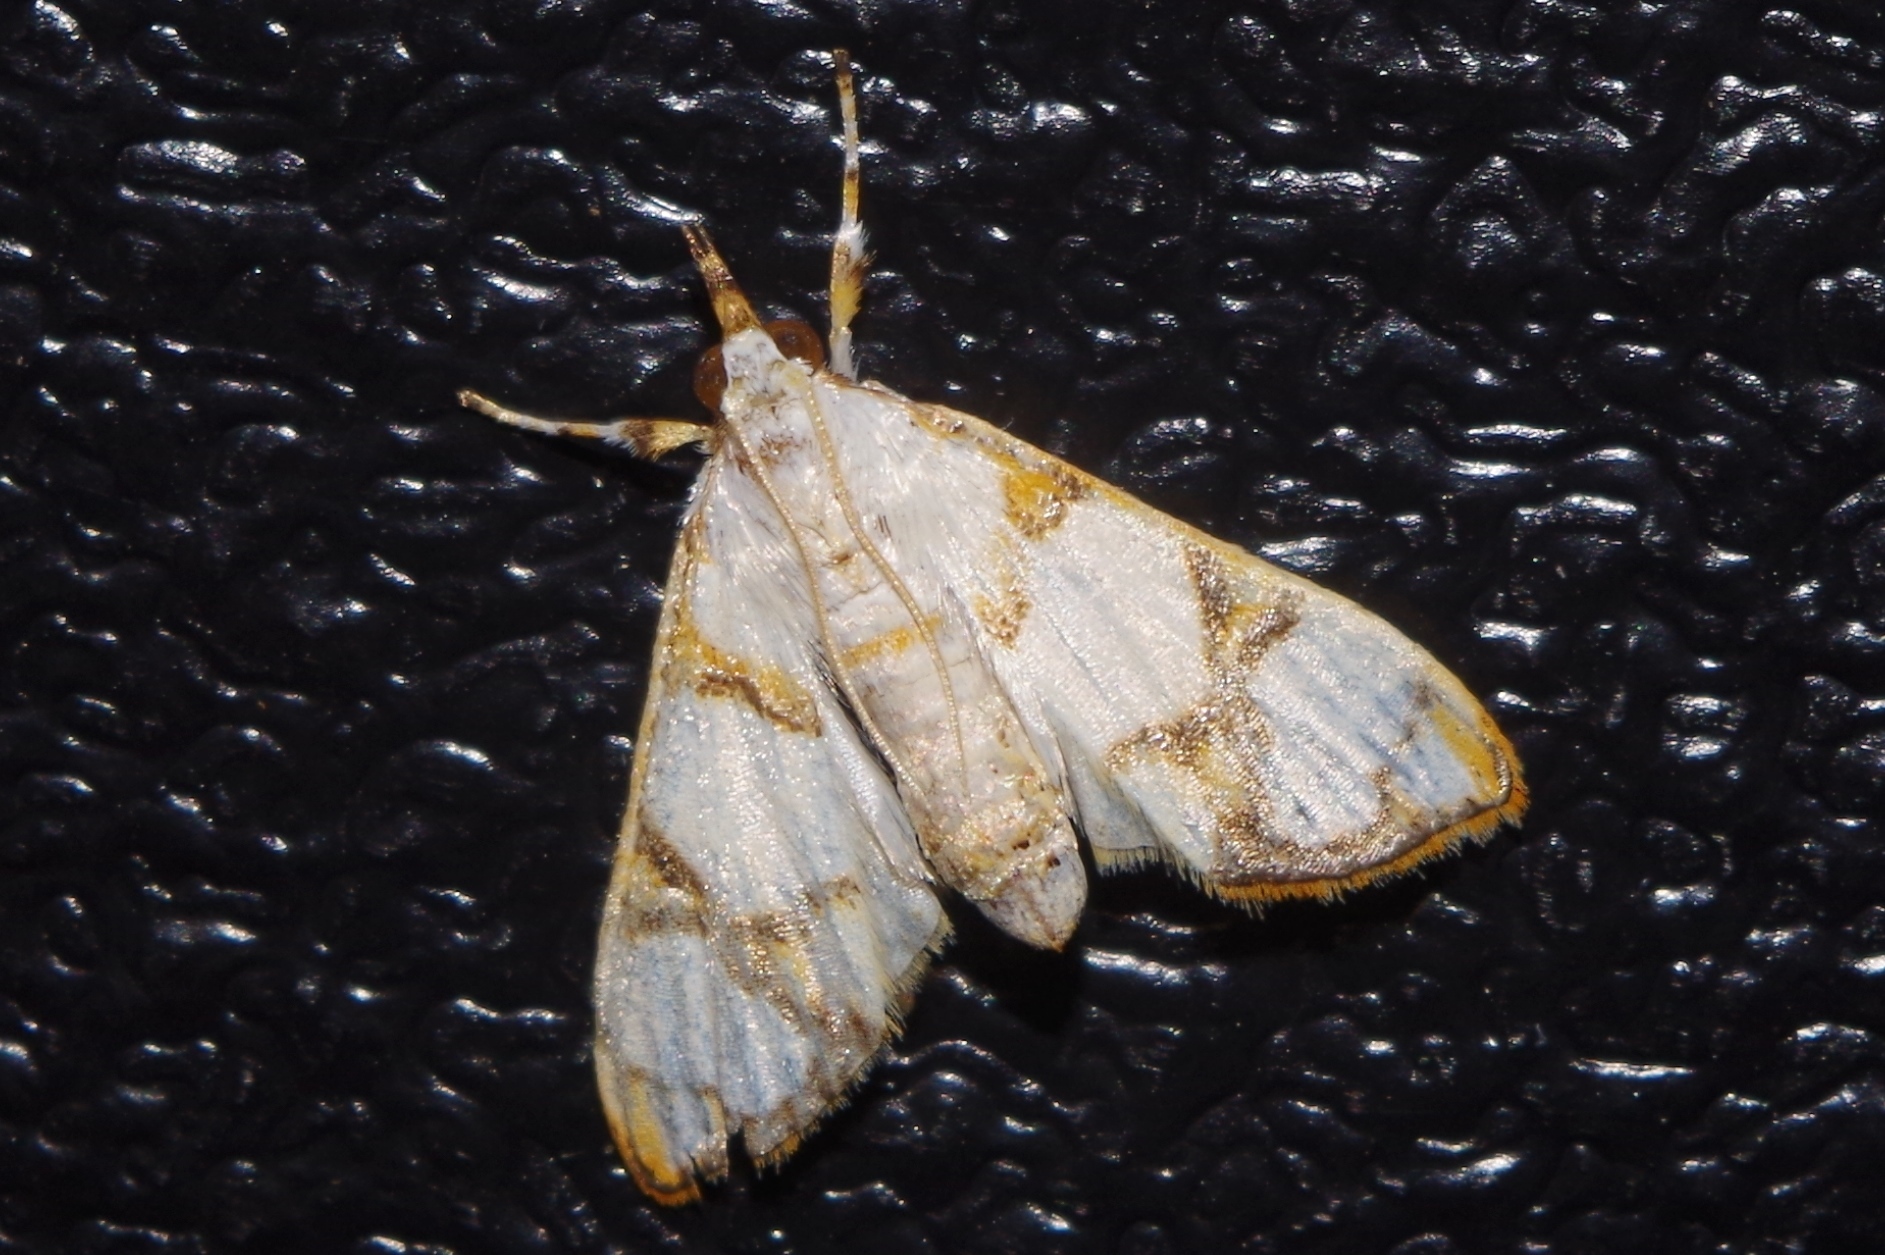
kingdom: Animalia
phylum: Arthropoda
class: Insecta
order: Lepidoptera
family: Crambidae
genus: Cirrhochrista
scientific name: Cirrhochrista kosemponialis
